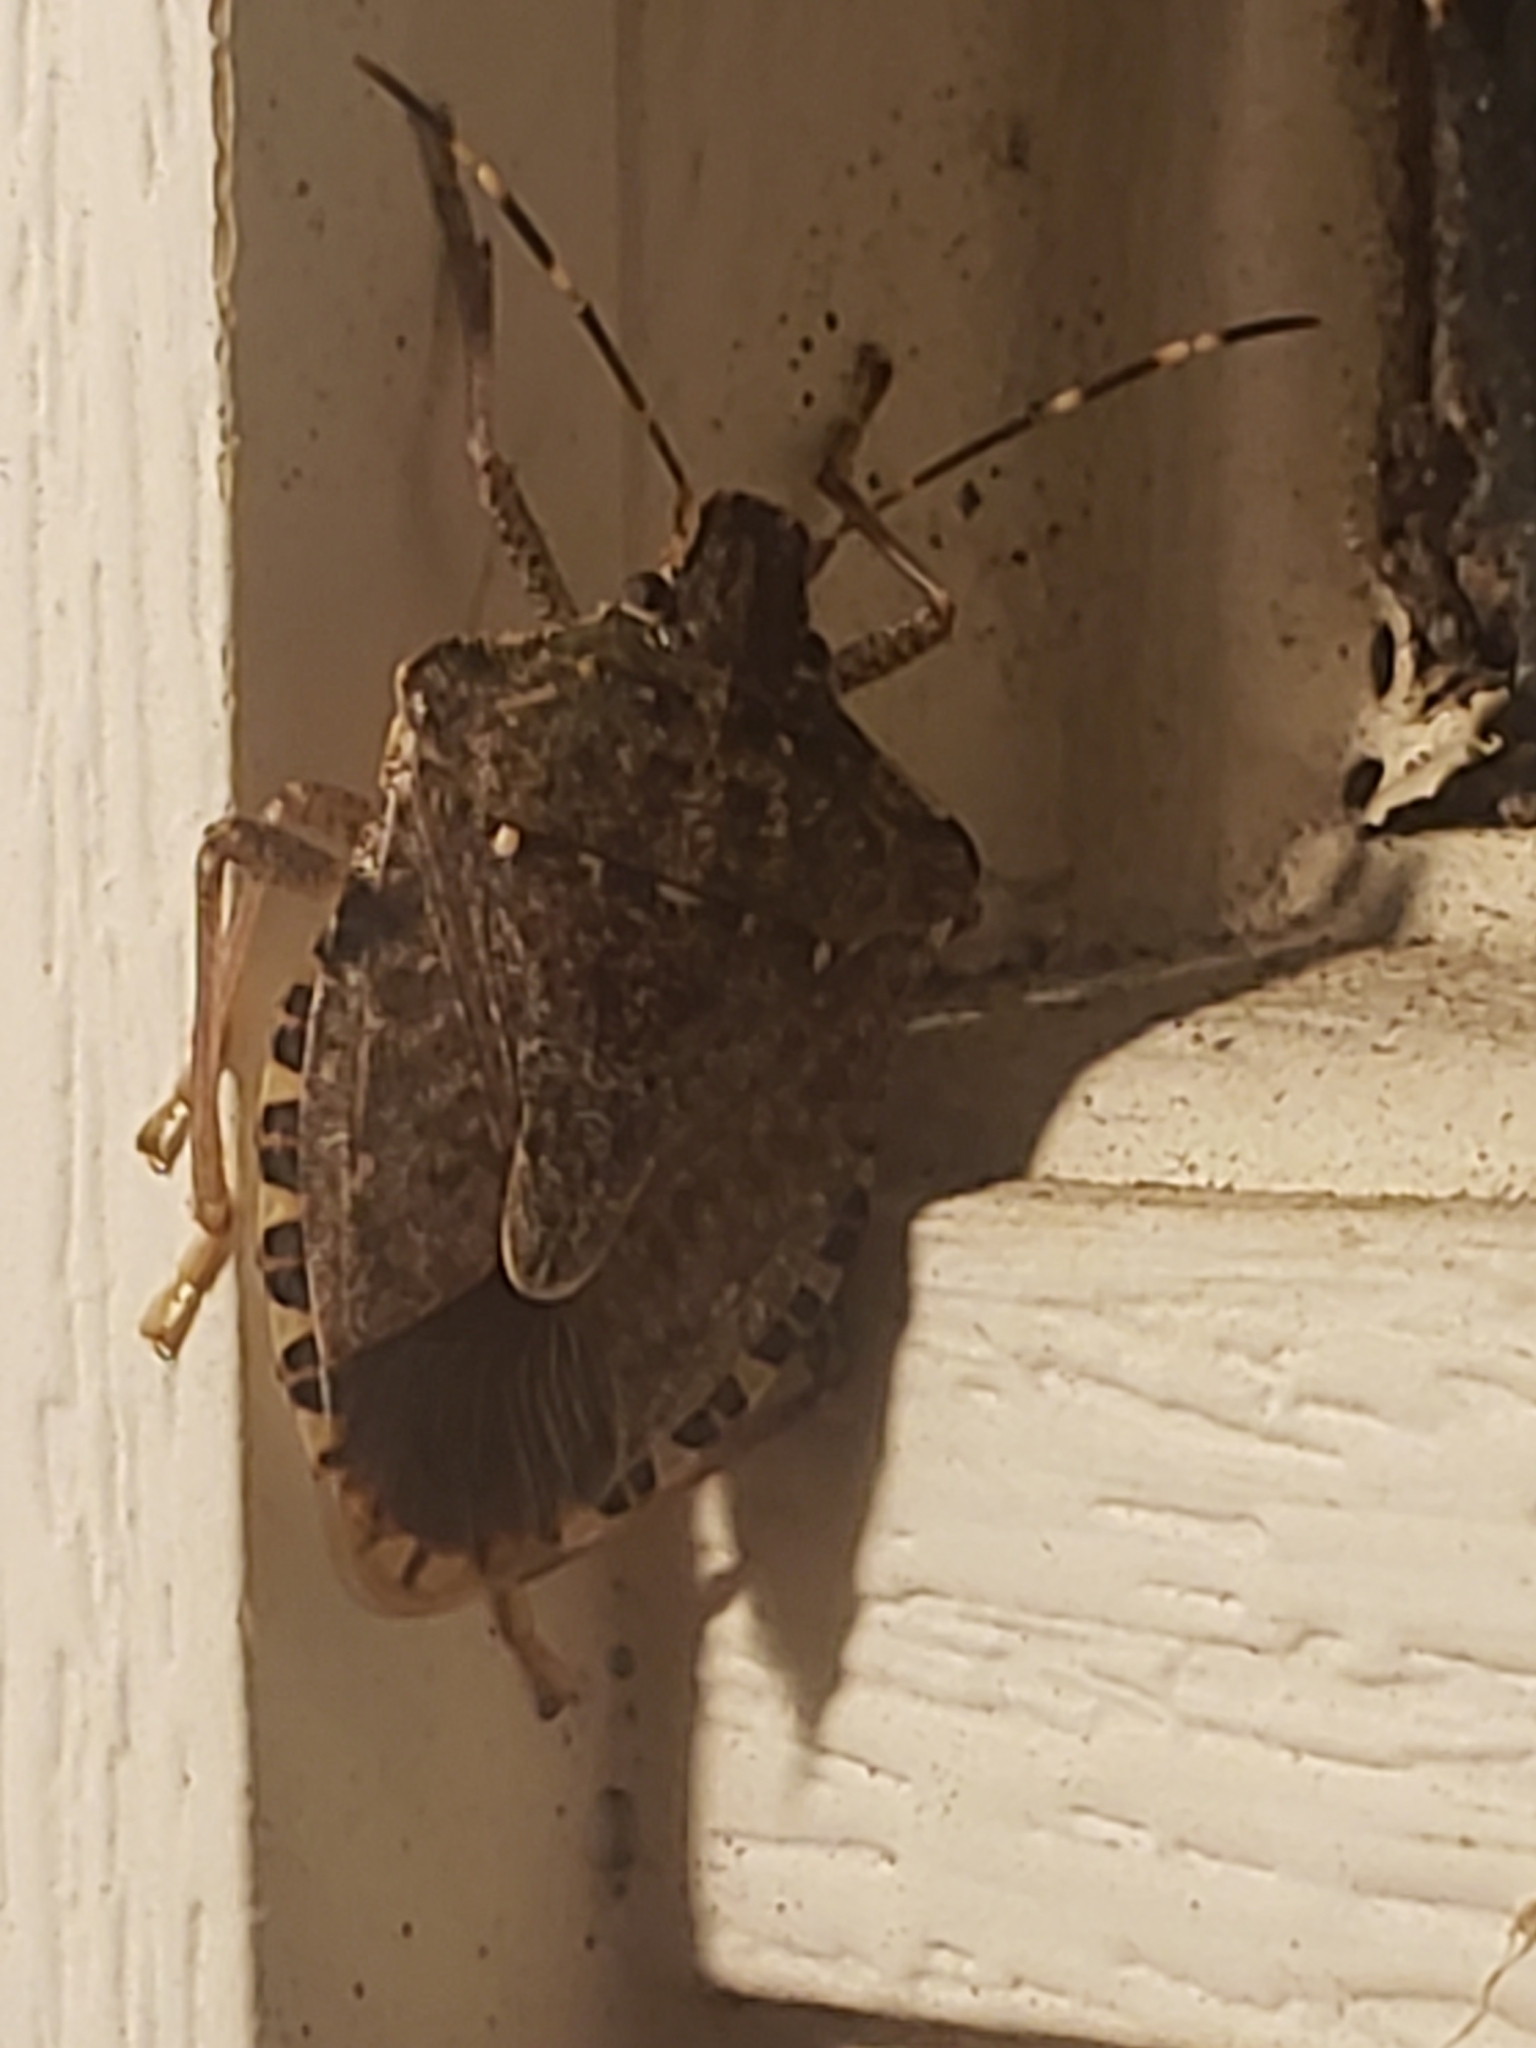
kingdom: Animalia
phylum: Arthropoda
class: Insecta
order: Hemiptera
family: Pentatomidae
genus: Halyomorpha
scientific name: Halyomorpha halys
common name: Brown marmorated stink bug
